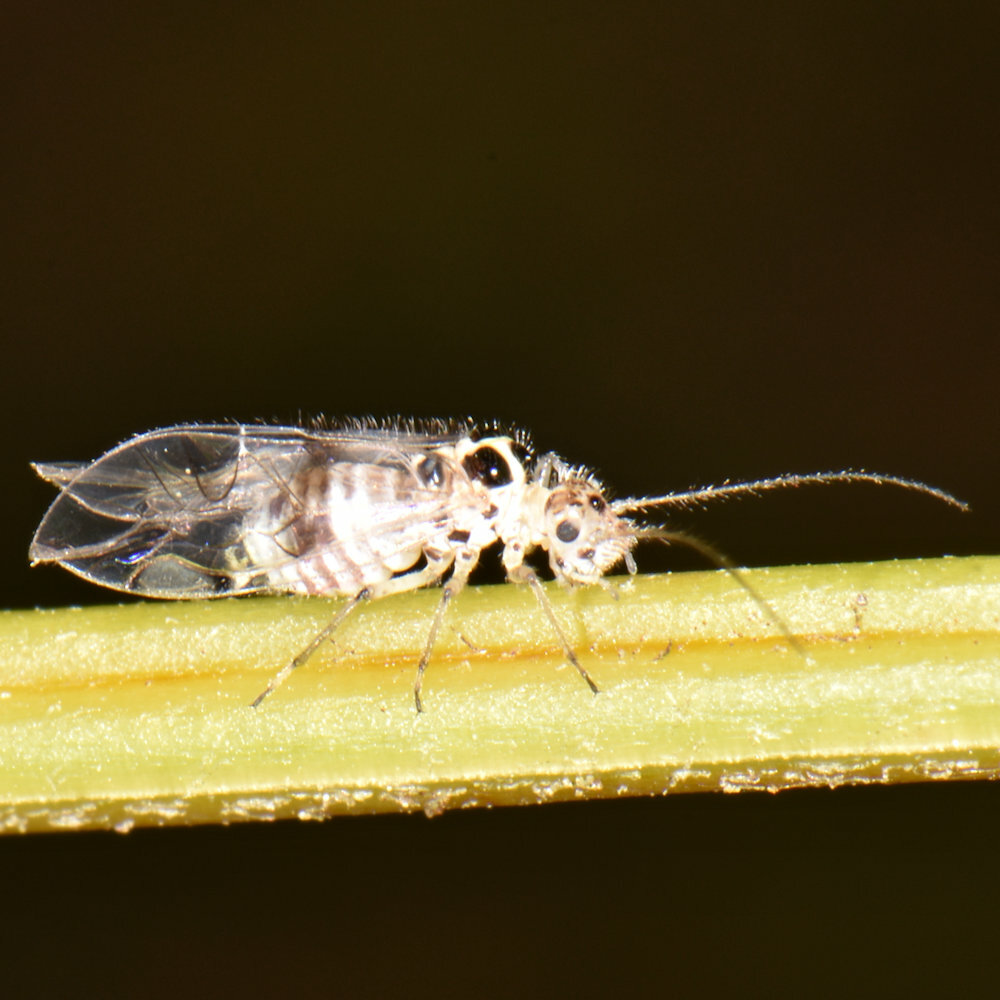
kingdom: Animalia
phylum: Arthropoda
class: Insecta
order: Psocodea
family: Dasydemellidae
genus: Teliapsocus
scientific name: Teliapsocus conterminus
